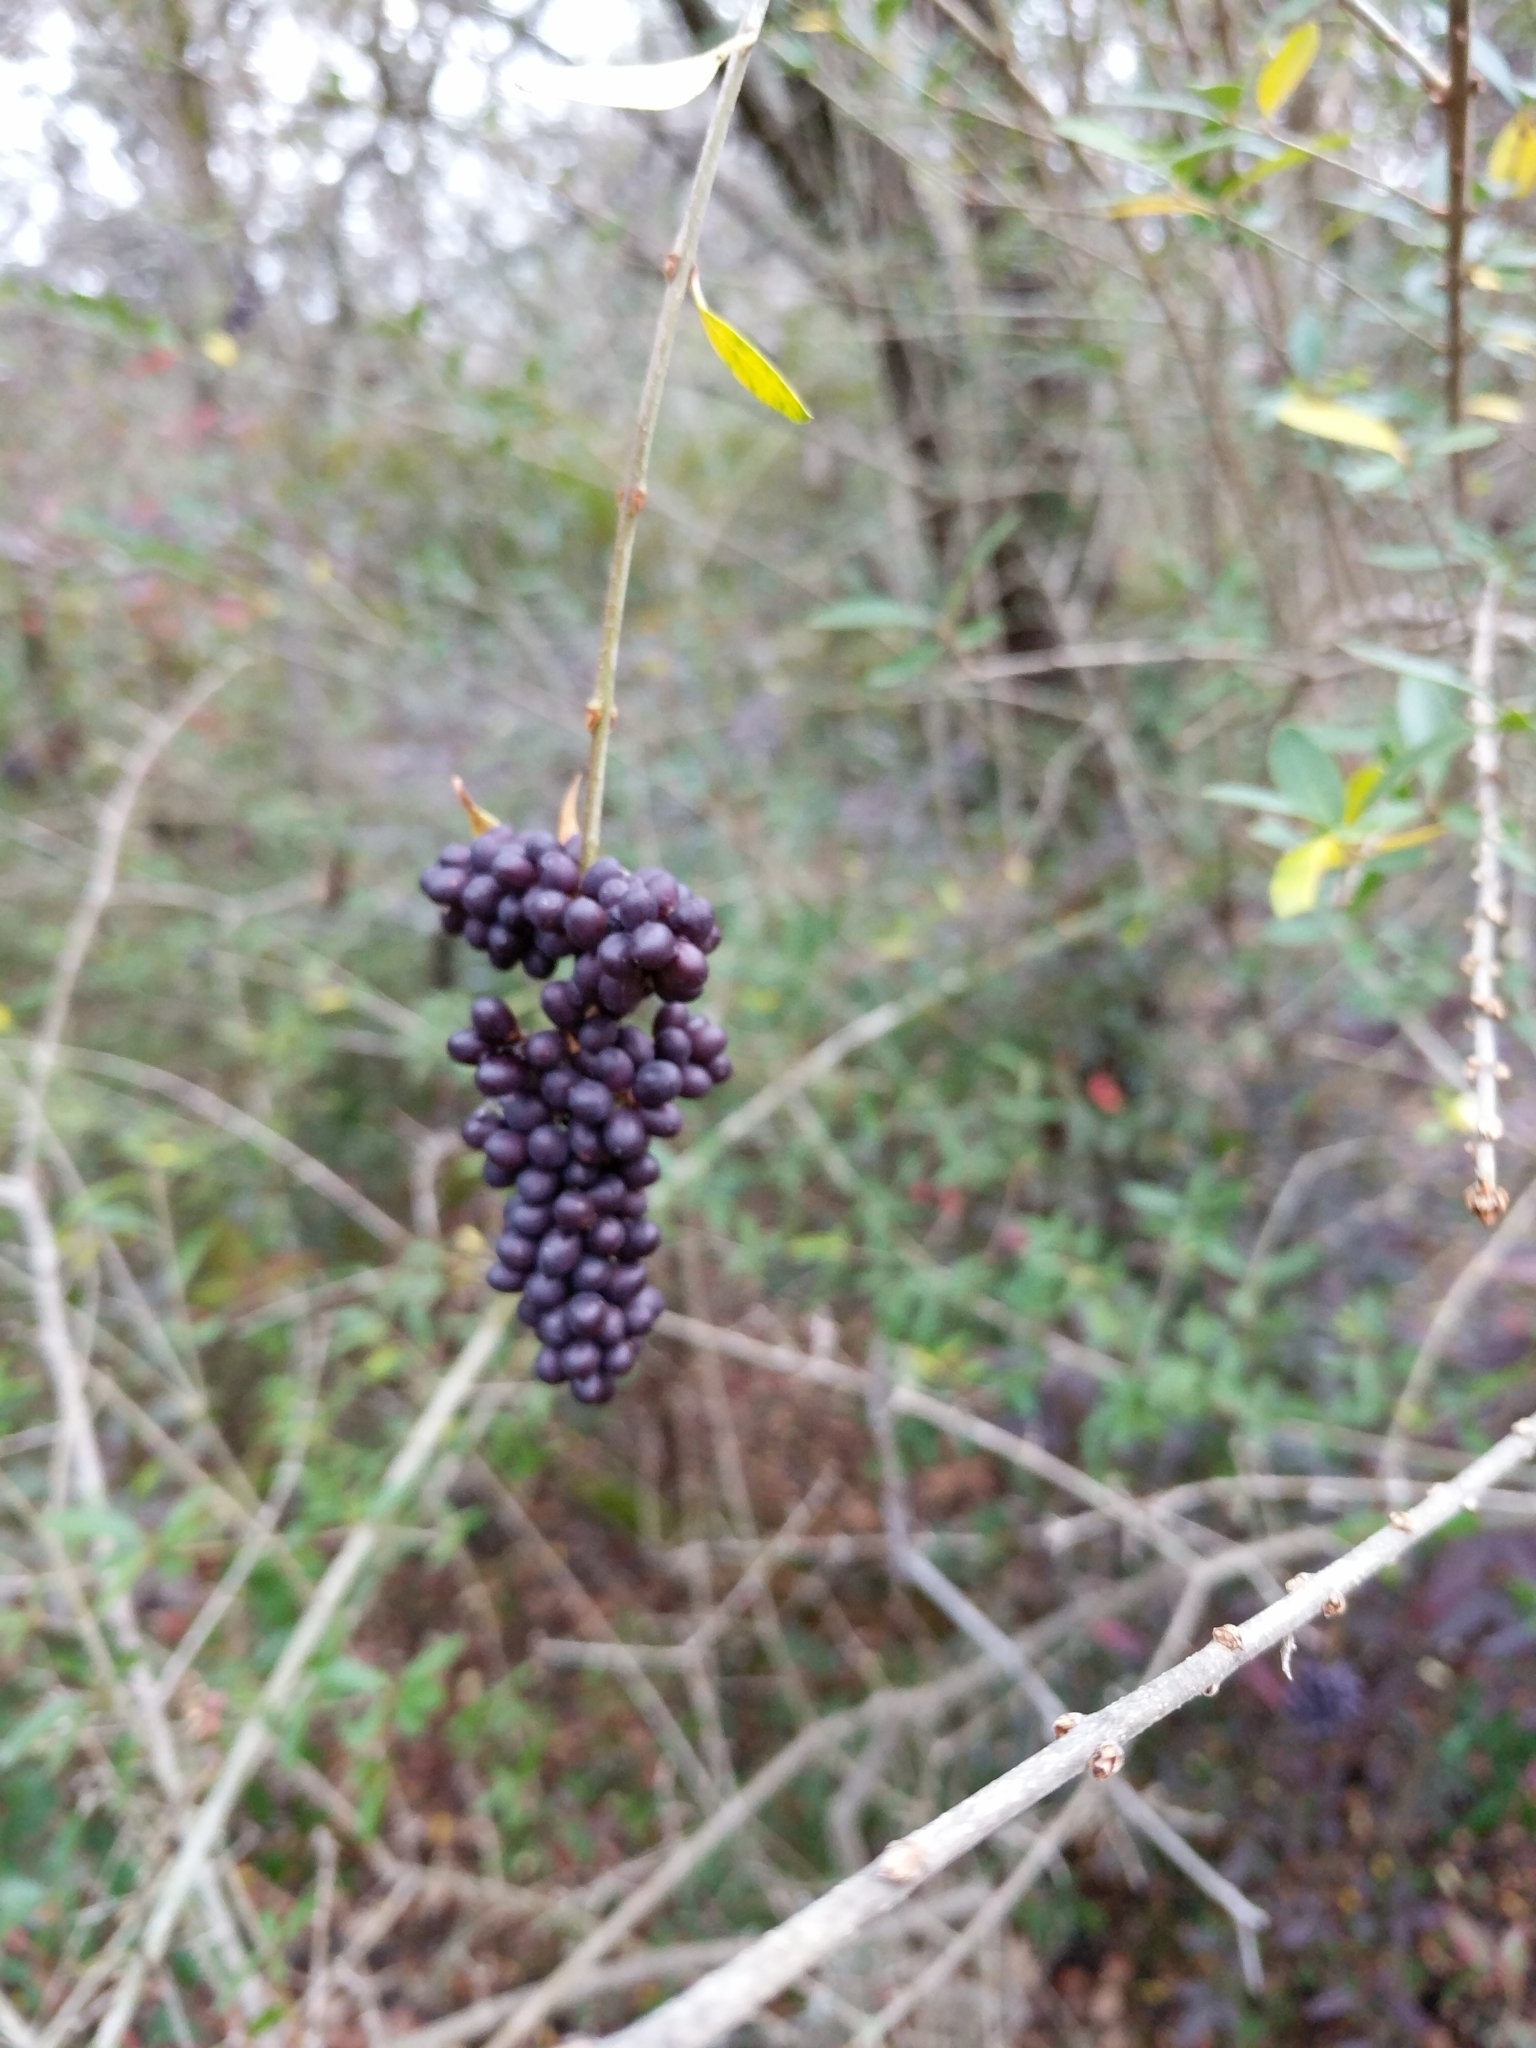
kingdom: Plantae
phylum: Tracheophyta
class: Magnoliopsida
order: Lamiales
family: Oleaceae
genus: Ligustrum
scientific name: Ligustrum quihoui
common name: Waxyleaf privet
